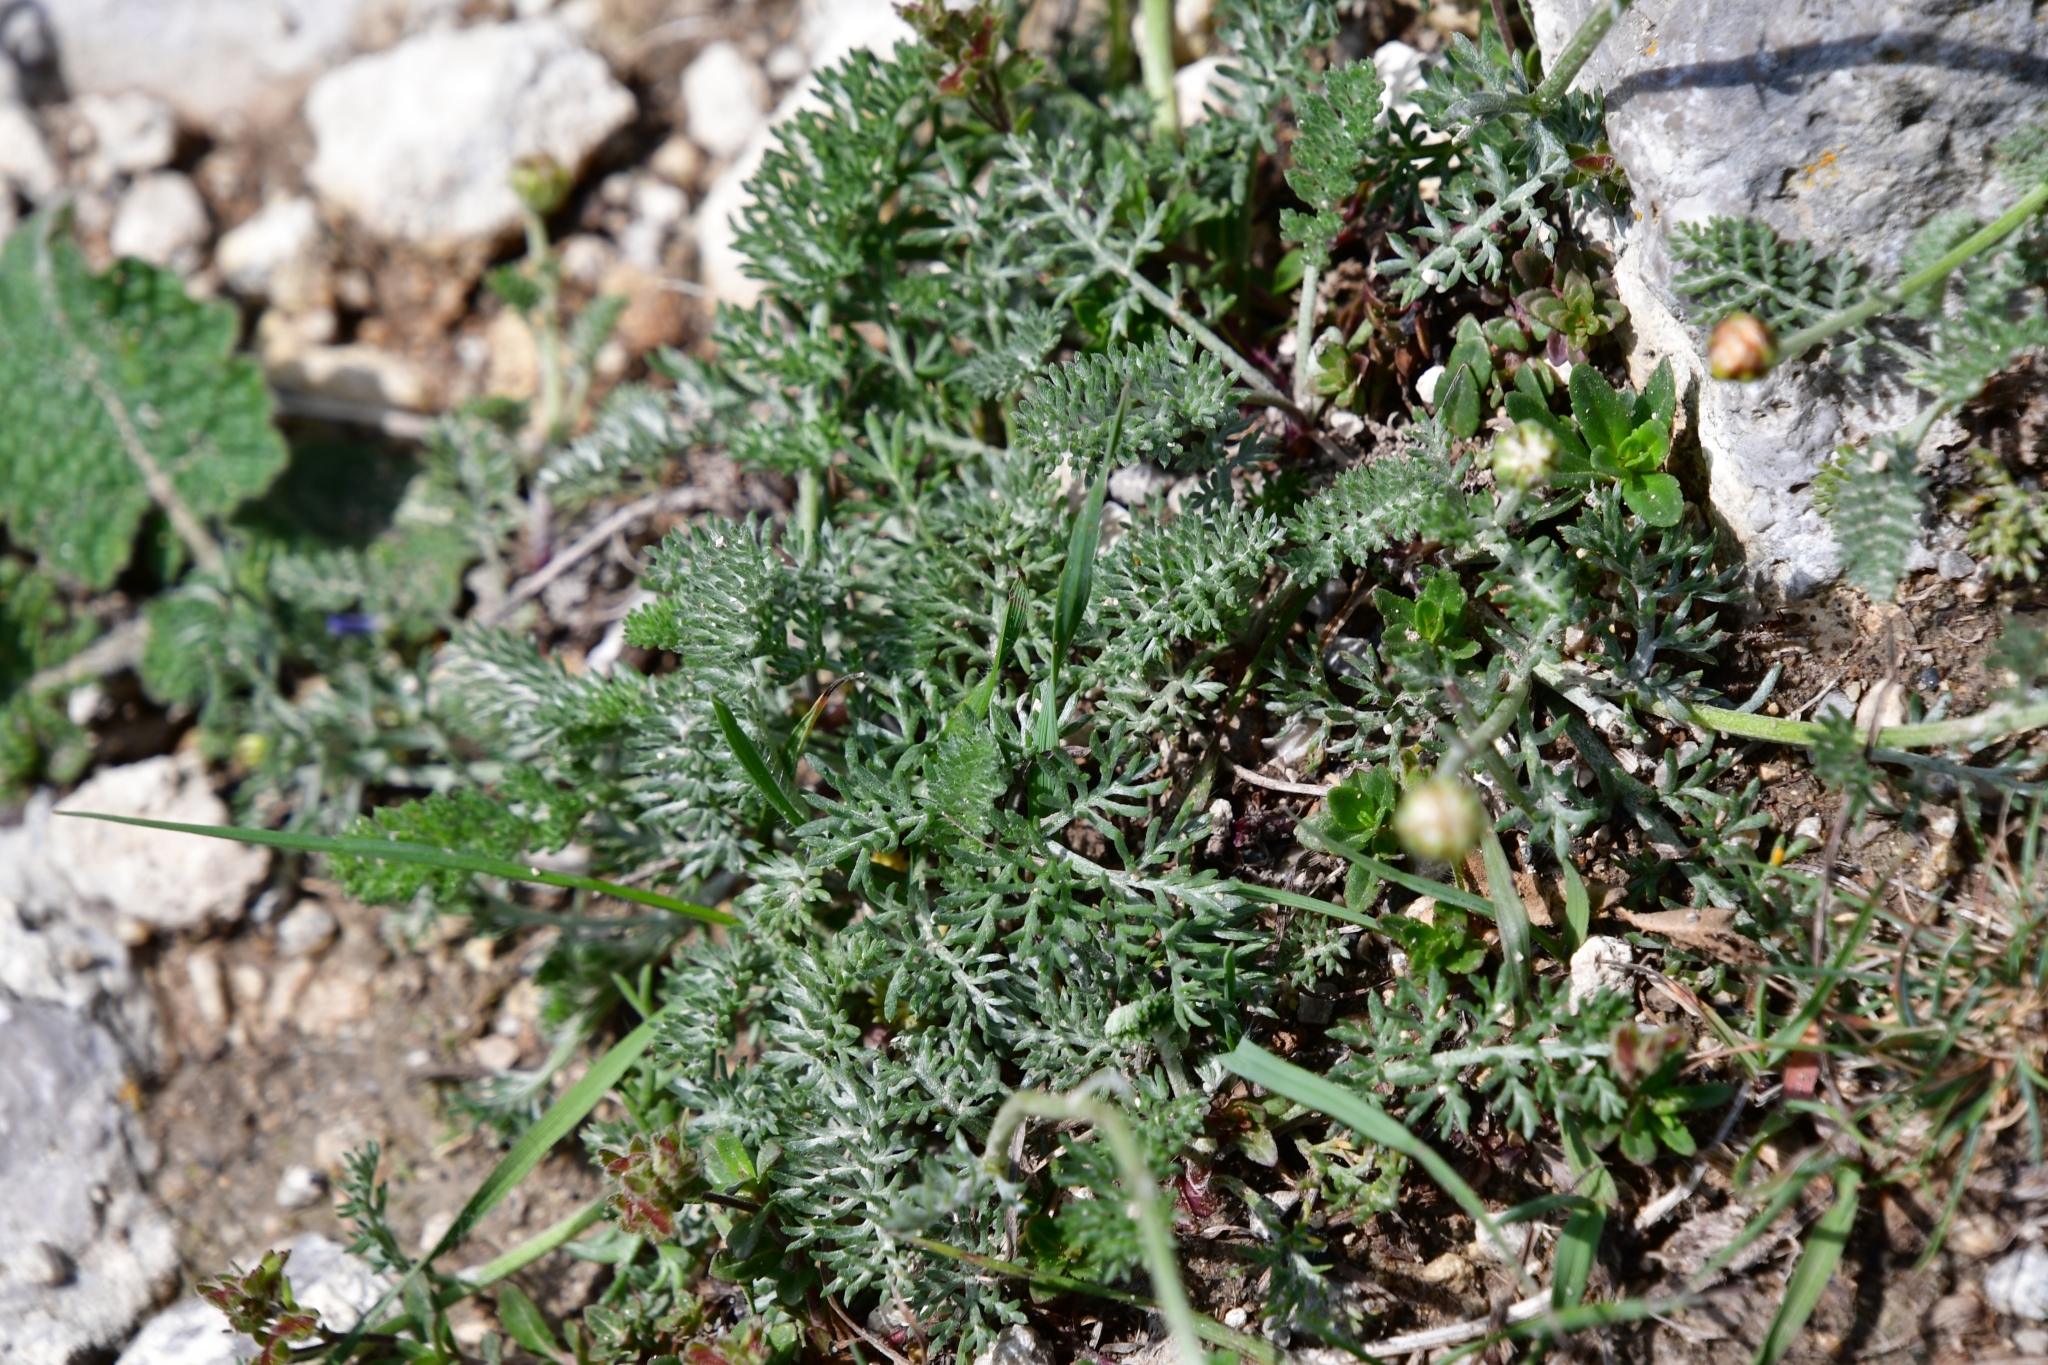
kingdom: Plantae
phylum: Tracheophyta
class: Magnoliopsida
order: Asterales
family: Asteraceae
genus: Archanthemis
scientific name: Archanthemis marschalliana
